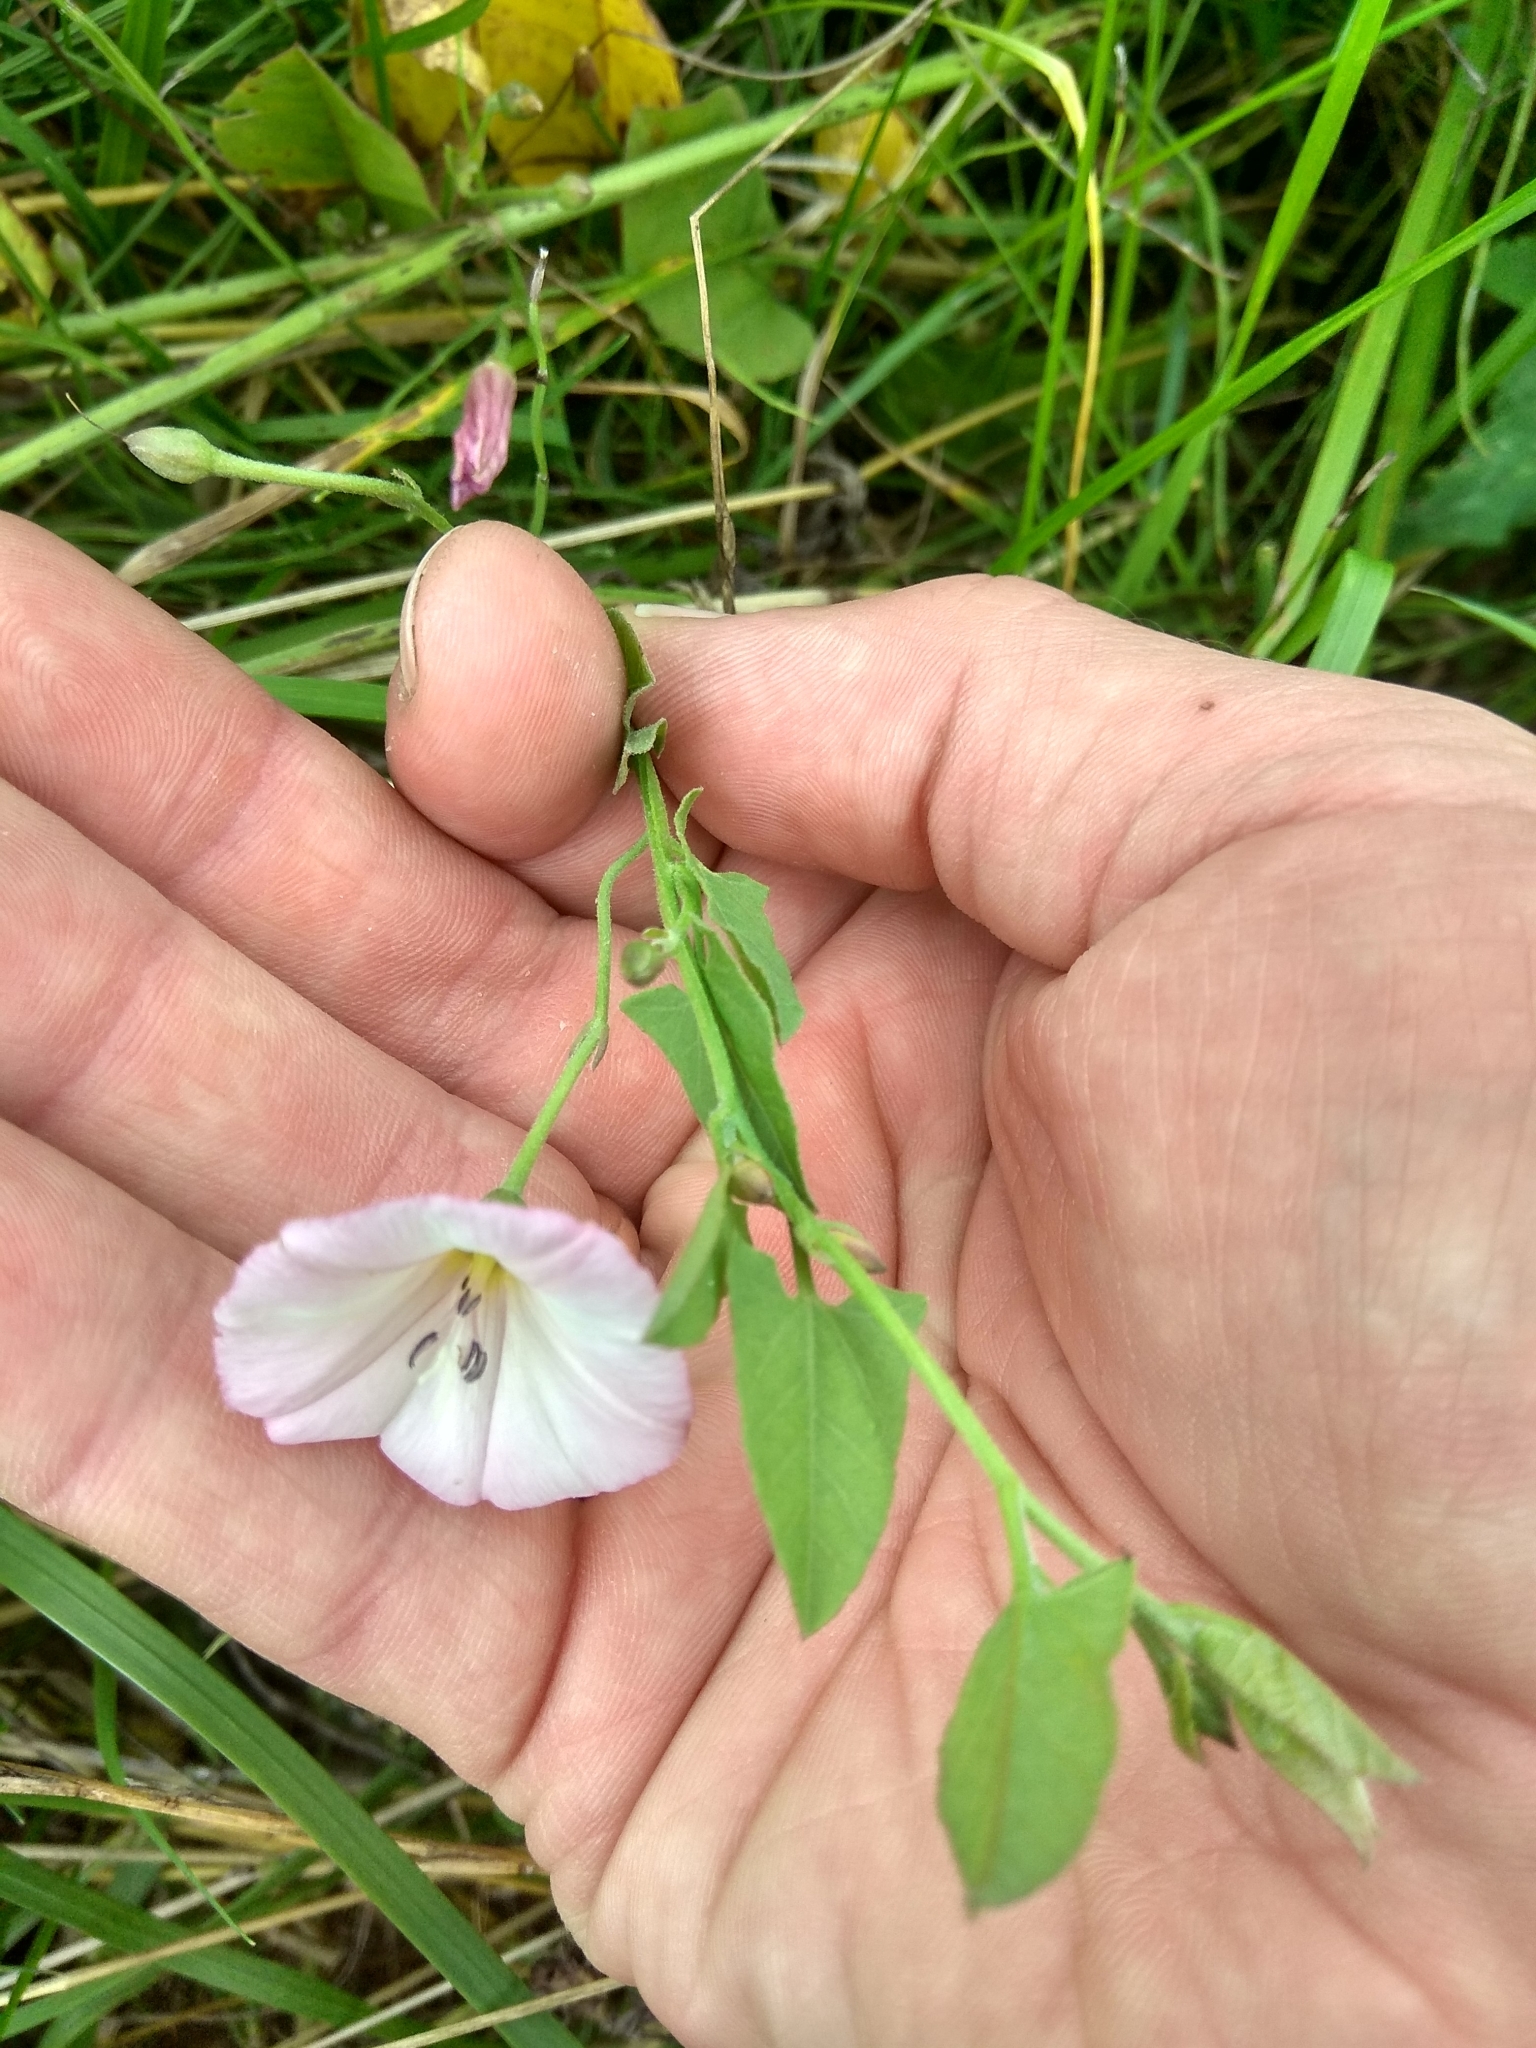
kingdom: Plantae
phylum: Tracheophyta
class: Magnoliopsida
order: Solanales
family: Convolvulaceae
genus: Convolvulus
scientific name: Convolvulus arvensis
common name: Field bindweed
